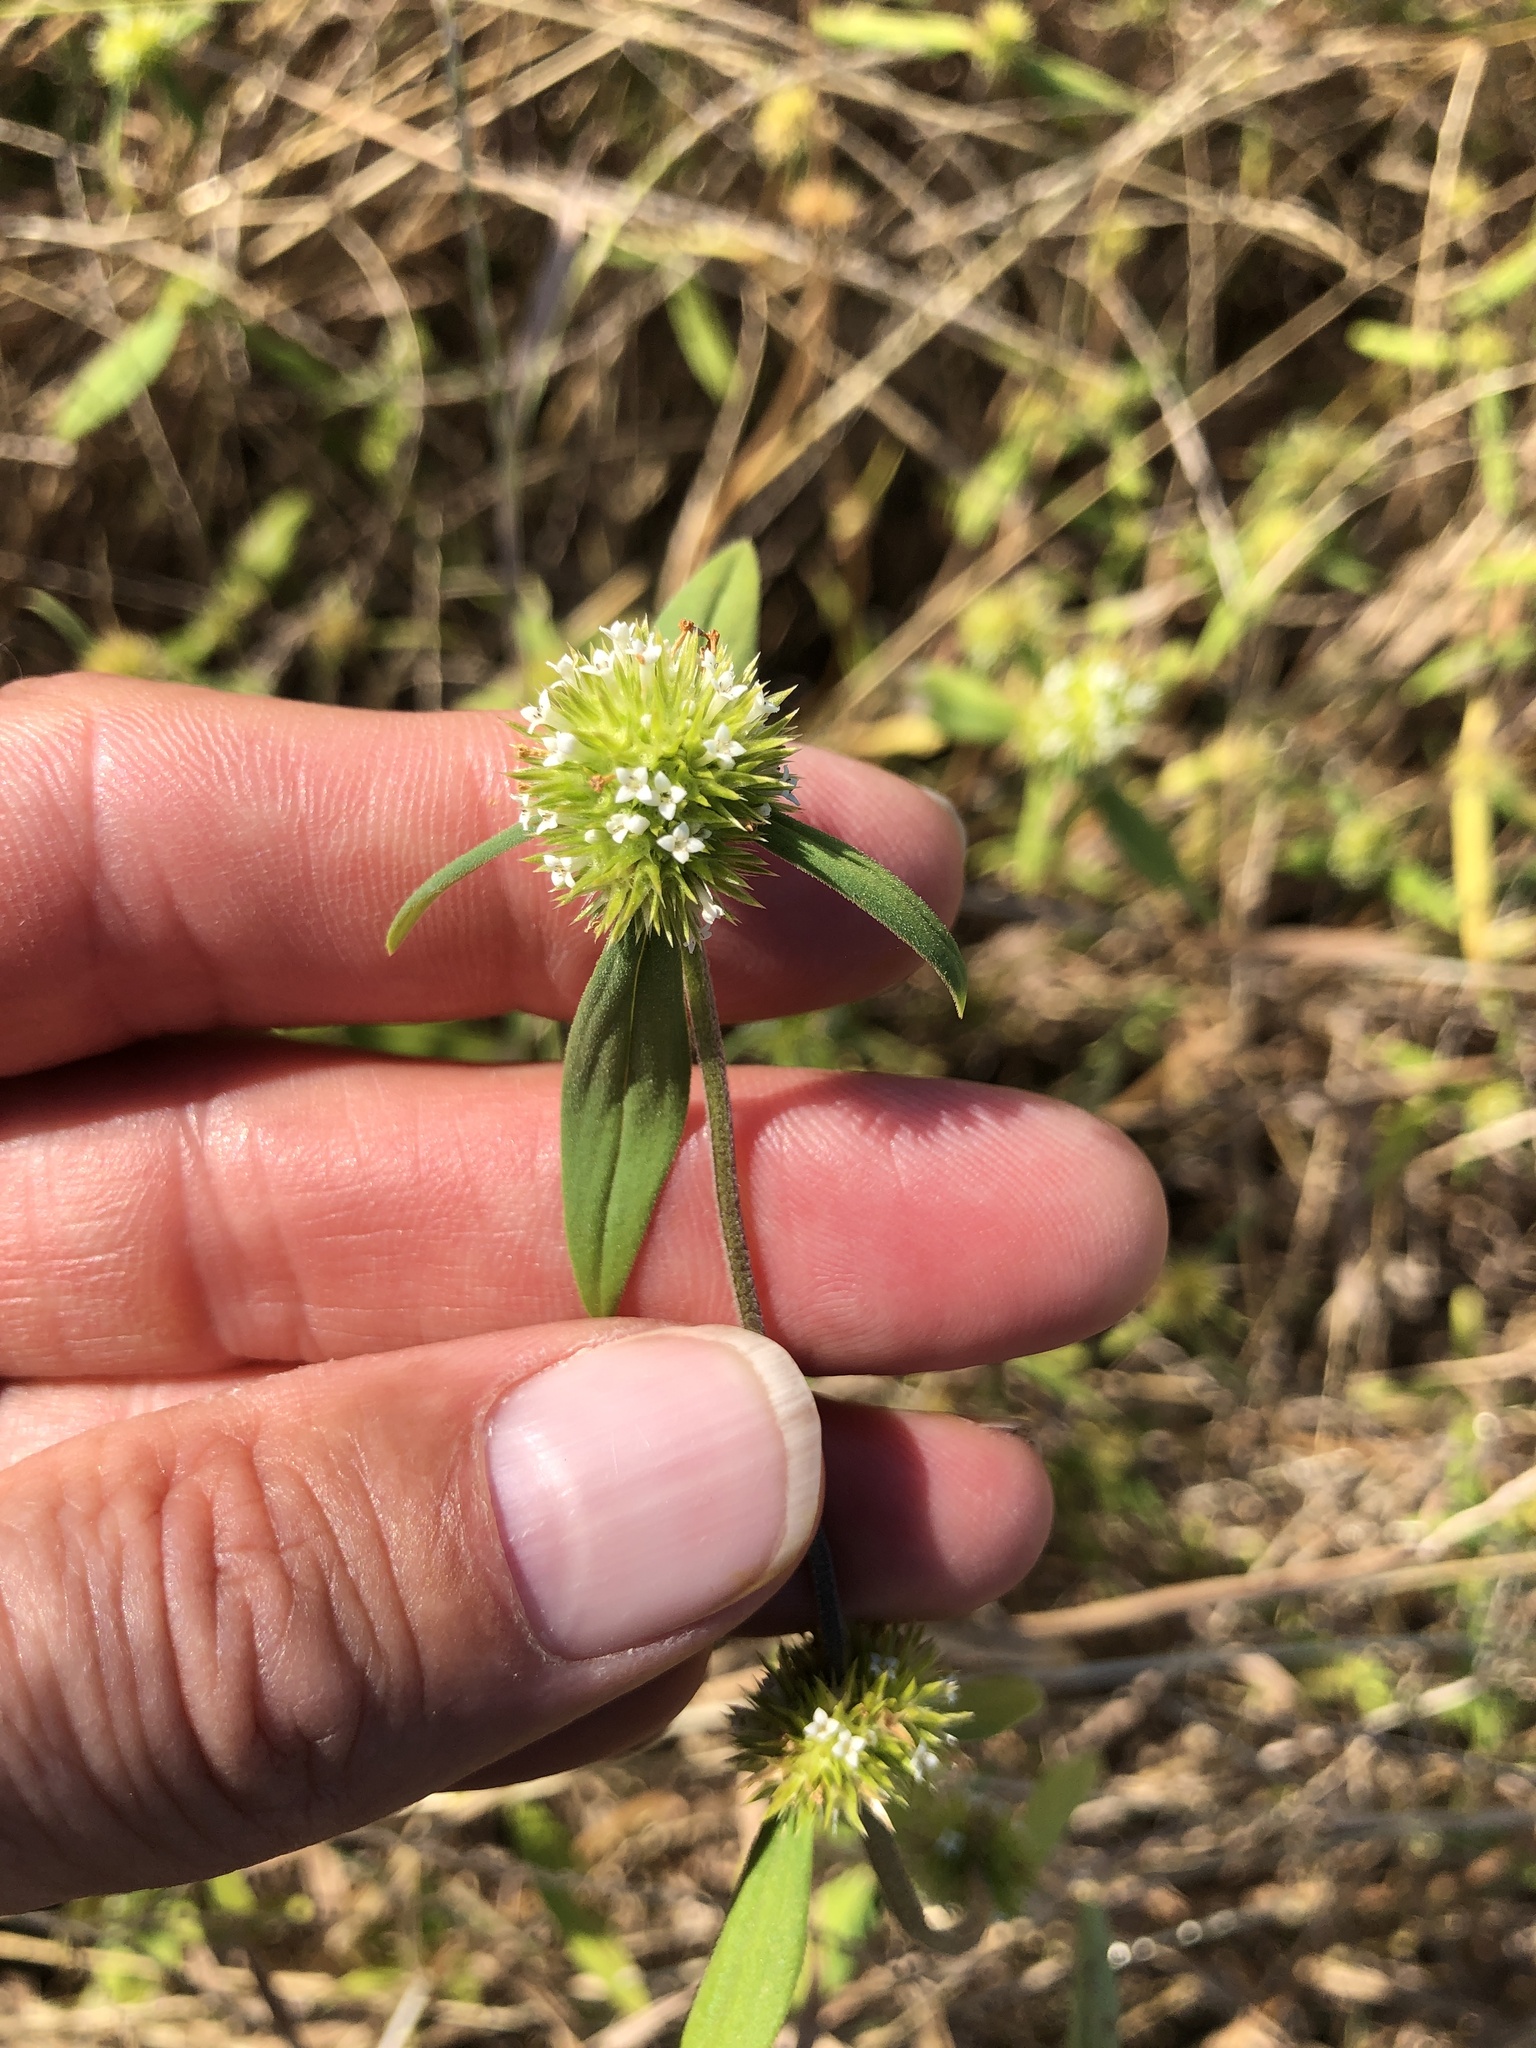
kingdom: Plantae
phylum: Tracheophyta
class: Magnoliopsida
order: Gentianales
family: Rubiaceae
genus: Spermacoce
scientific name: Spermacoce glabra
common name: Smooth buttonweed
